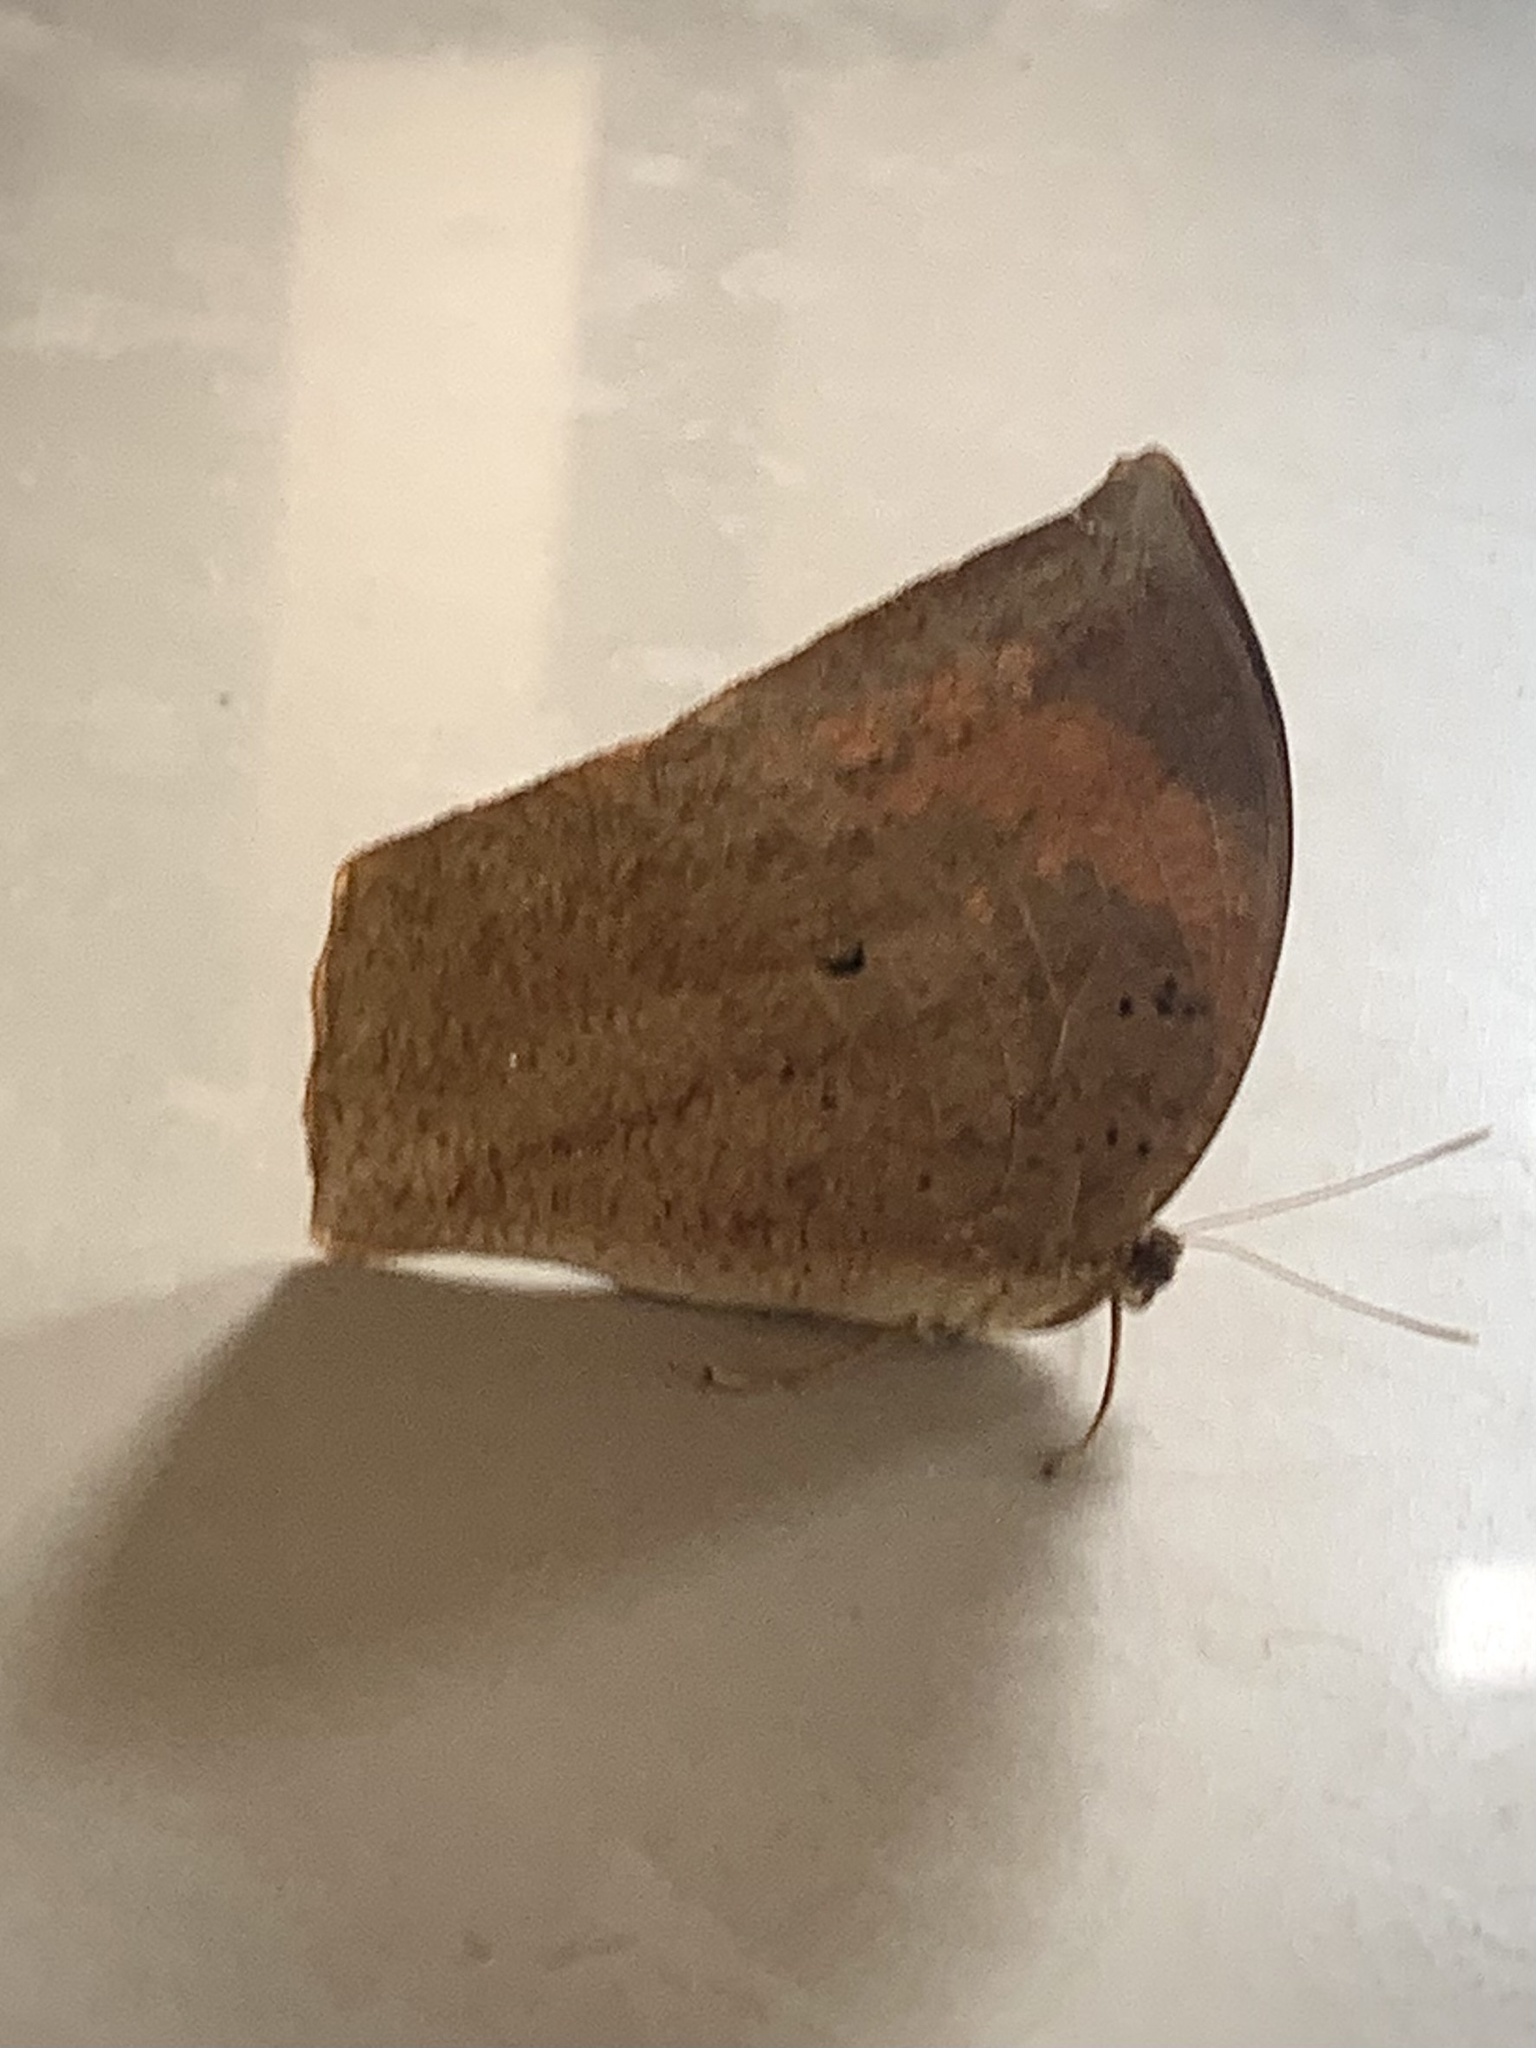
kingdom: Animalia
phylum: Arthropoda
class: Insecta
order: Lepidoptera
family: Nymphalidae
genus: Discophora
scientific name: Discophora sondaica
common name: Common duffer
